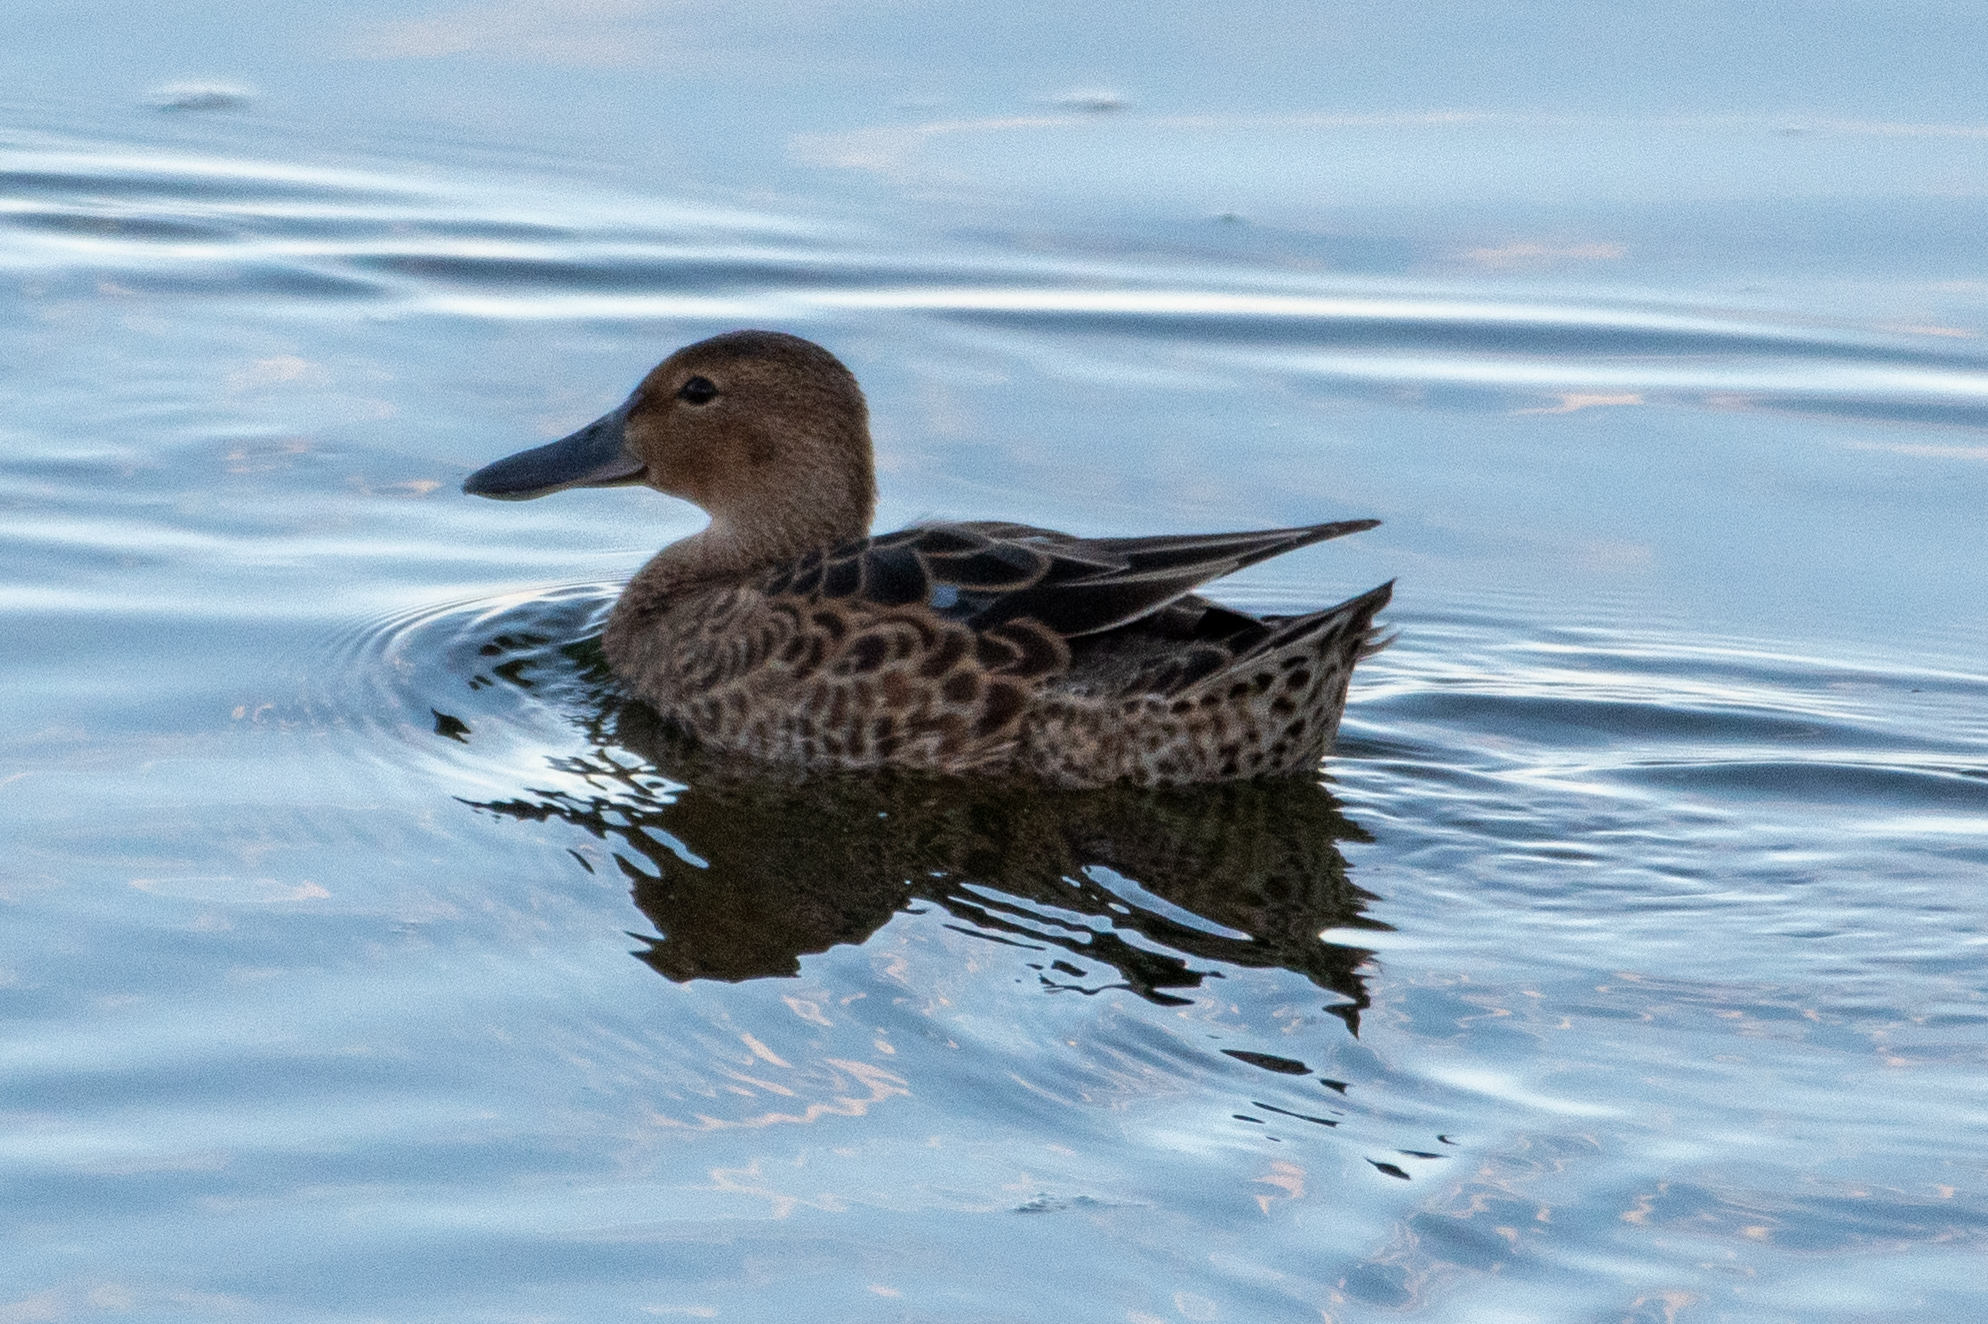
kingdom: Animalia
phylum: Chordata
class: Aves
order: Anseriformes
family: Anatidae
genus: Spatula
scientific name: Spatula cyanoptera
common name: Cinnamon teal
